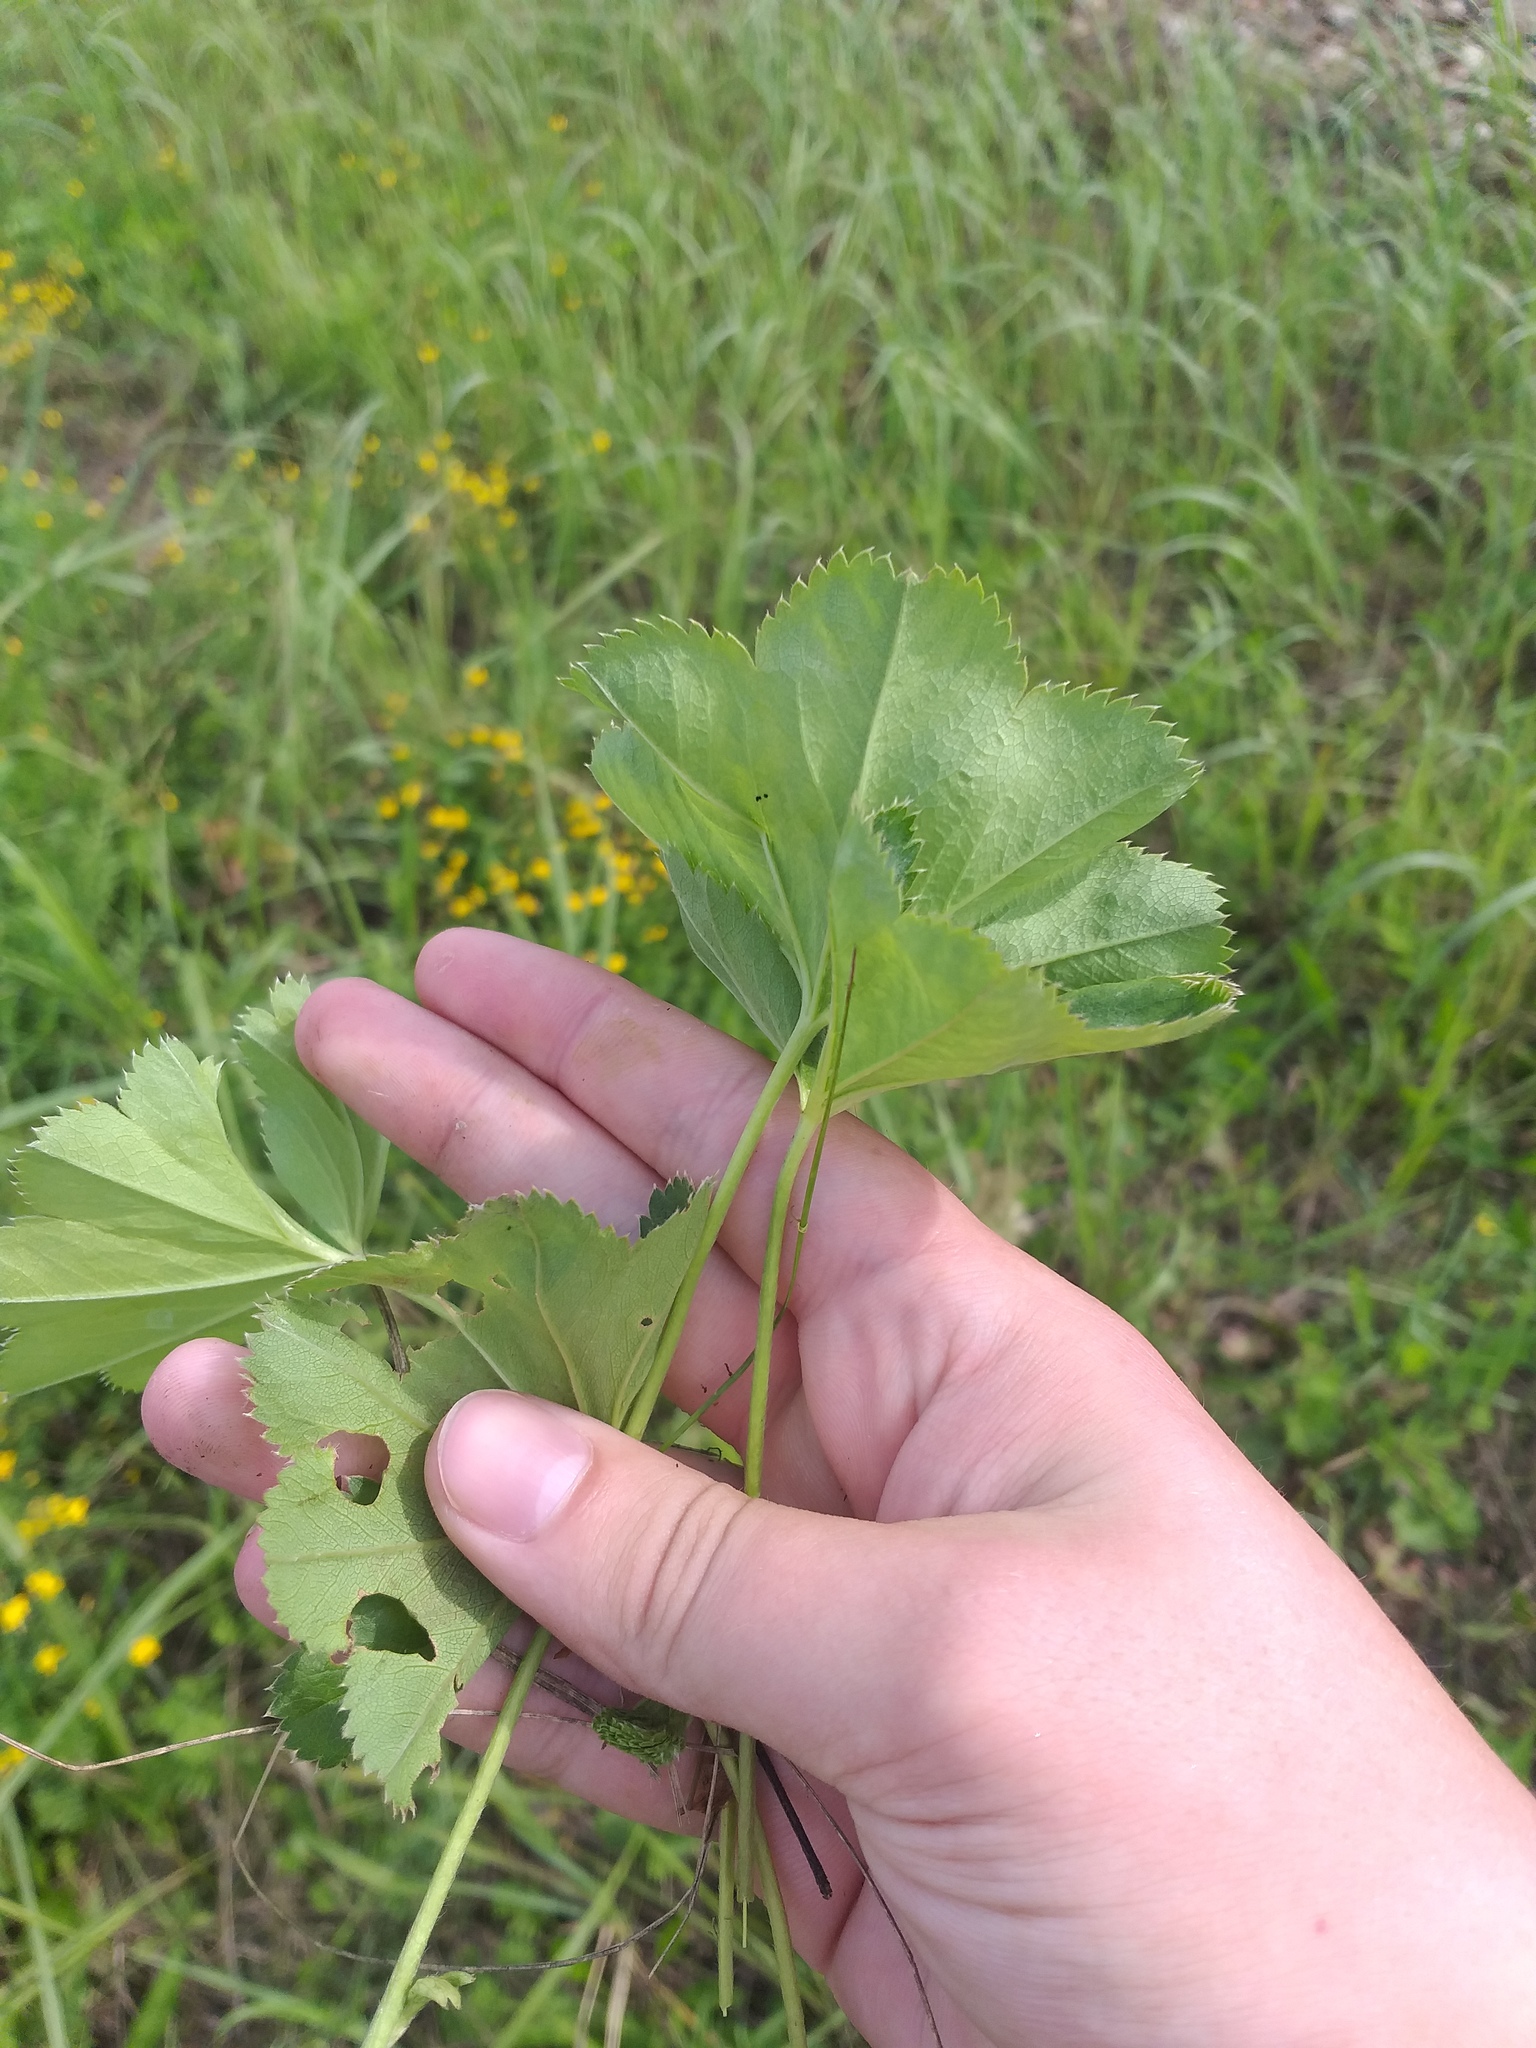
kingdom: Plantae
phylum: Tracheophyta
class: Magnoliopsida
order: Rosales
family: Rosaceae
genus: Alchemilla
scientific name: Alchemilla baltica
